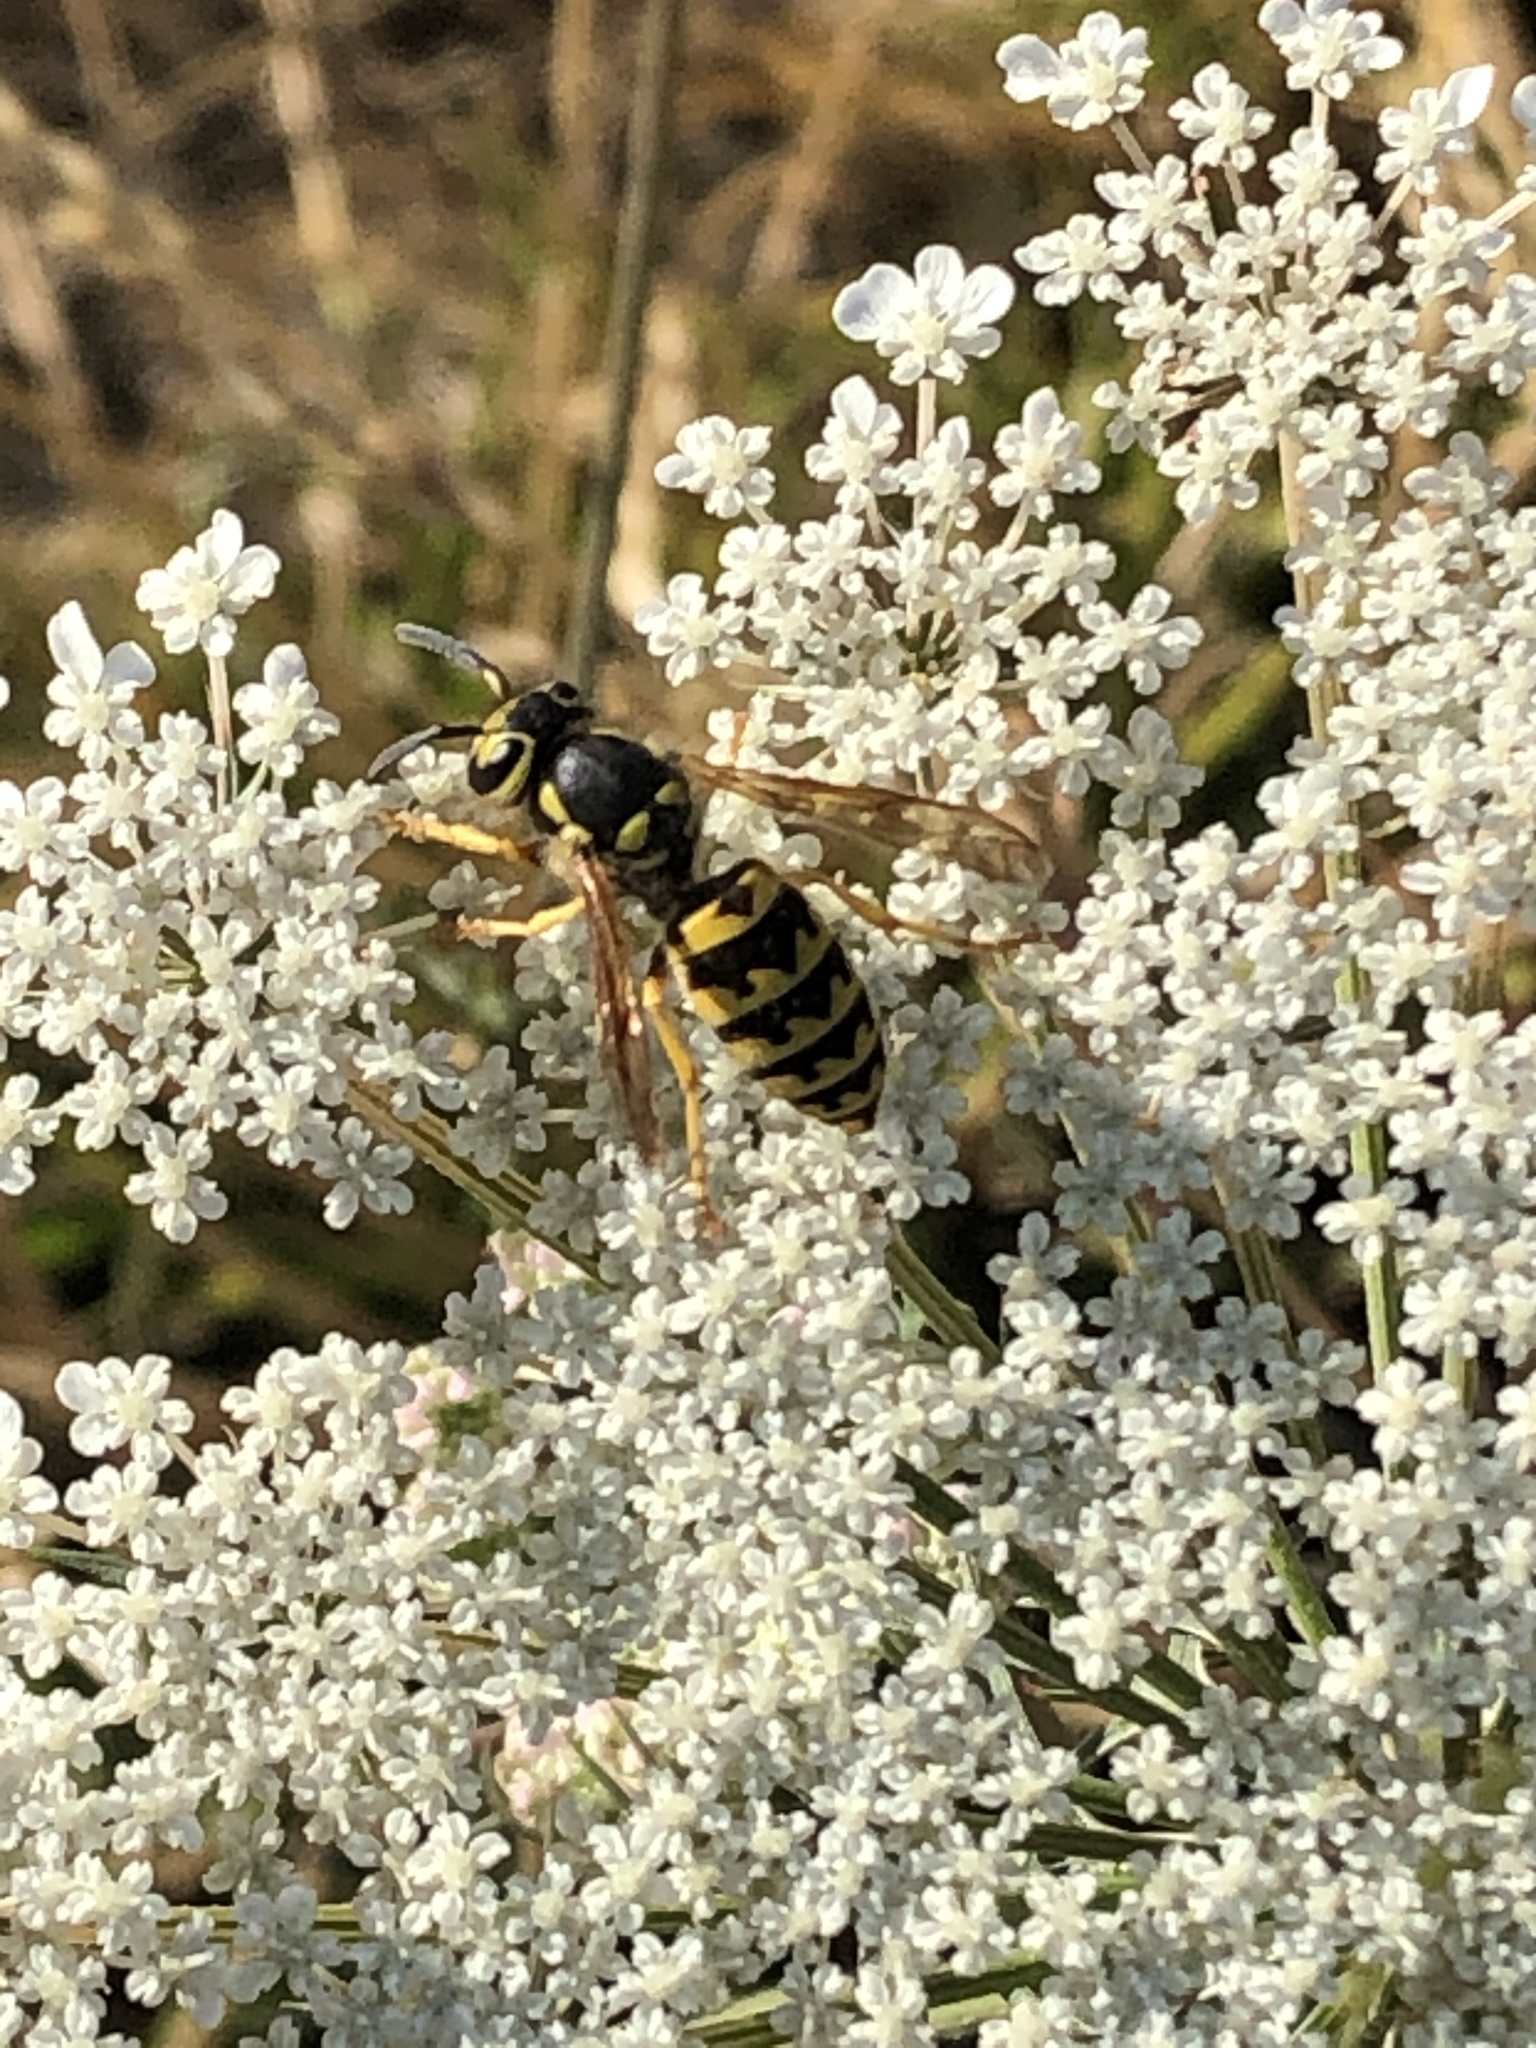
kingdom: Animalia
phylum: Arthropoda
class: Insecta
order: Hymenoptera
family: Vespidae
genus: Vespula
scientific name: Vespula pensylvanica
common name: Western yellowjacket
